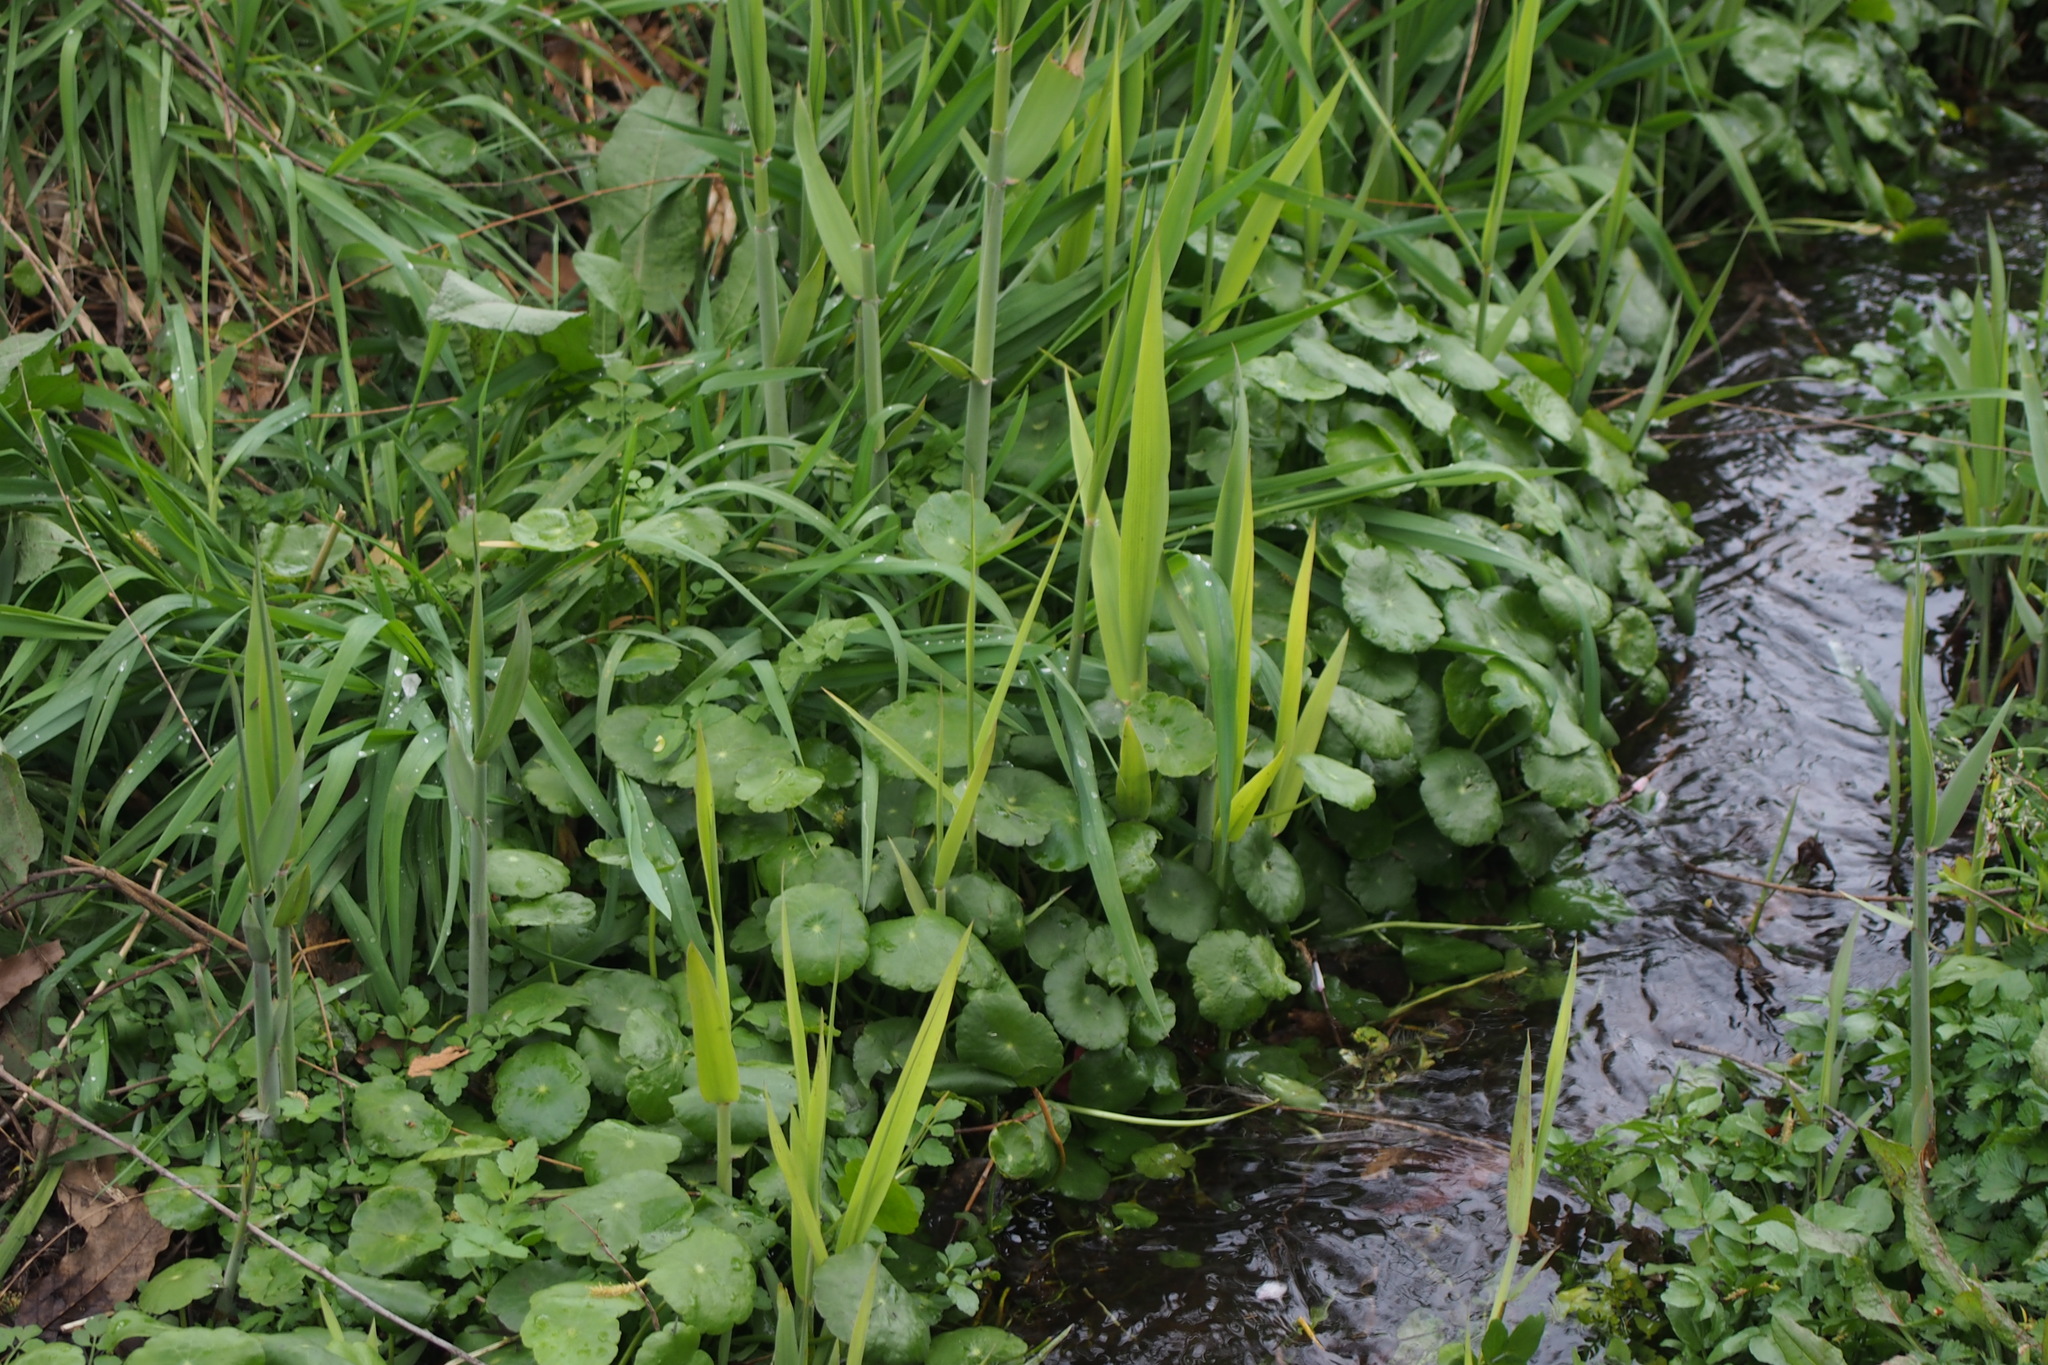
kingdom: Plantae
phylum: Tracheophyta
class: Magnoliopsida
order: Apiales
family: Araliaceae
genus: Hydrocotyle
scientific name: Hydrocotyle bonariensis
